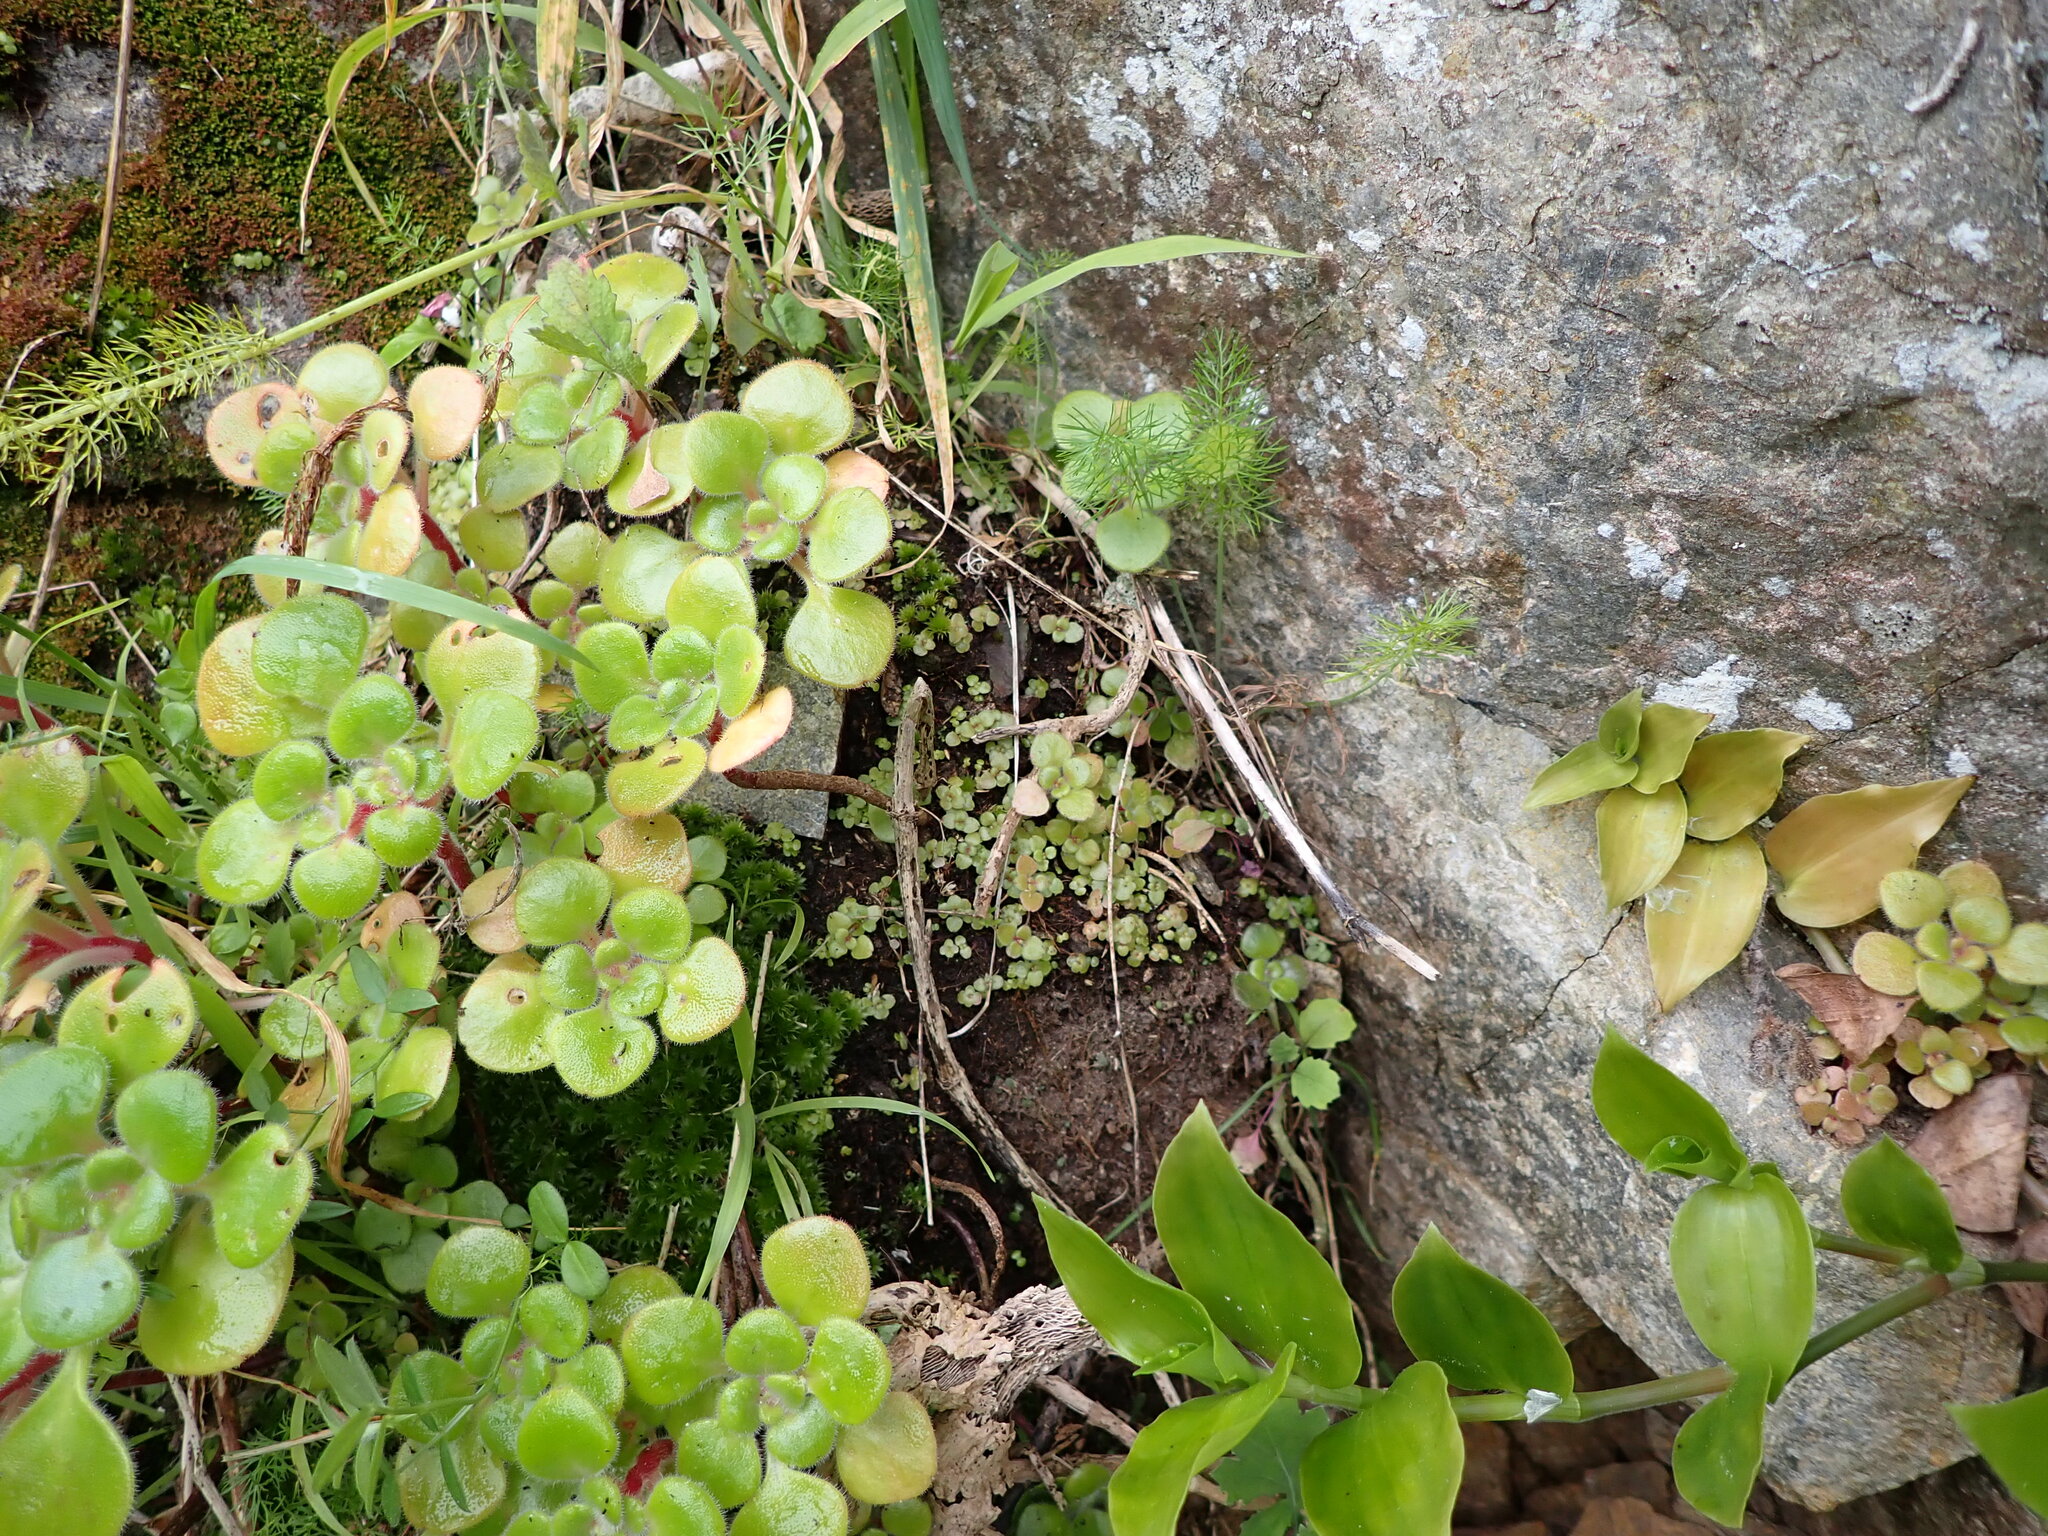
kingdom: Plantae
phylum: Tracheophyta
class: Magnoliopsida
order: Saxifragales
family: Crassulaceae
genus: Aichryson
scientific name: Aichryson laxum
